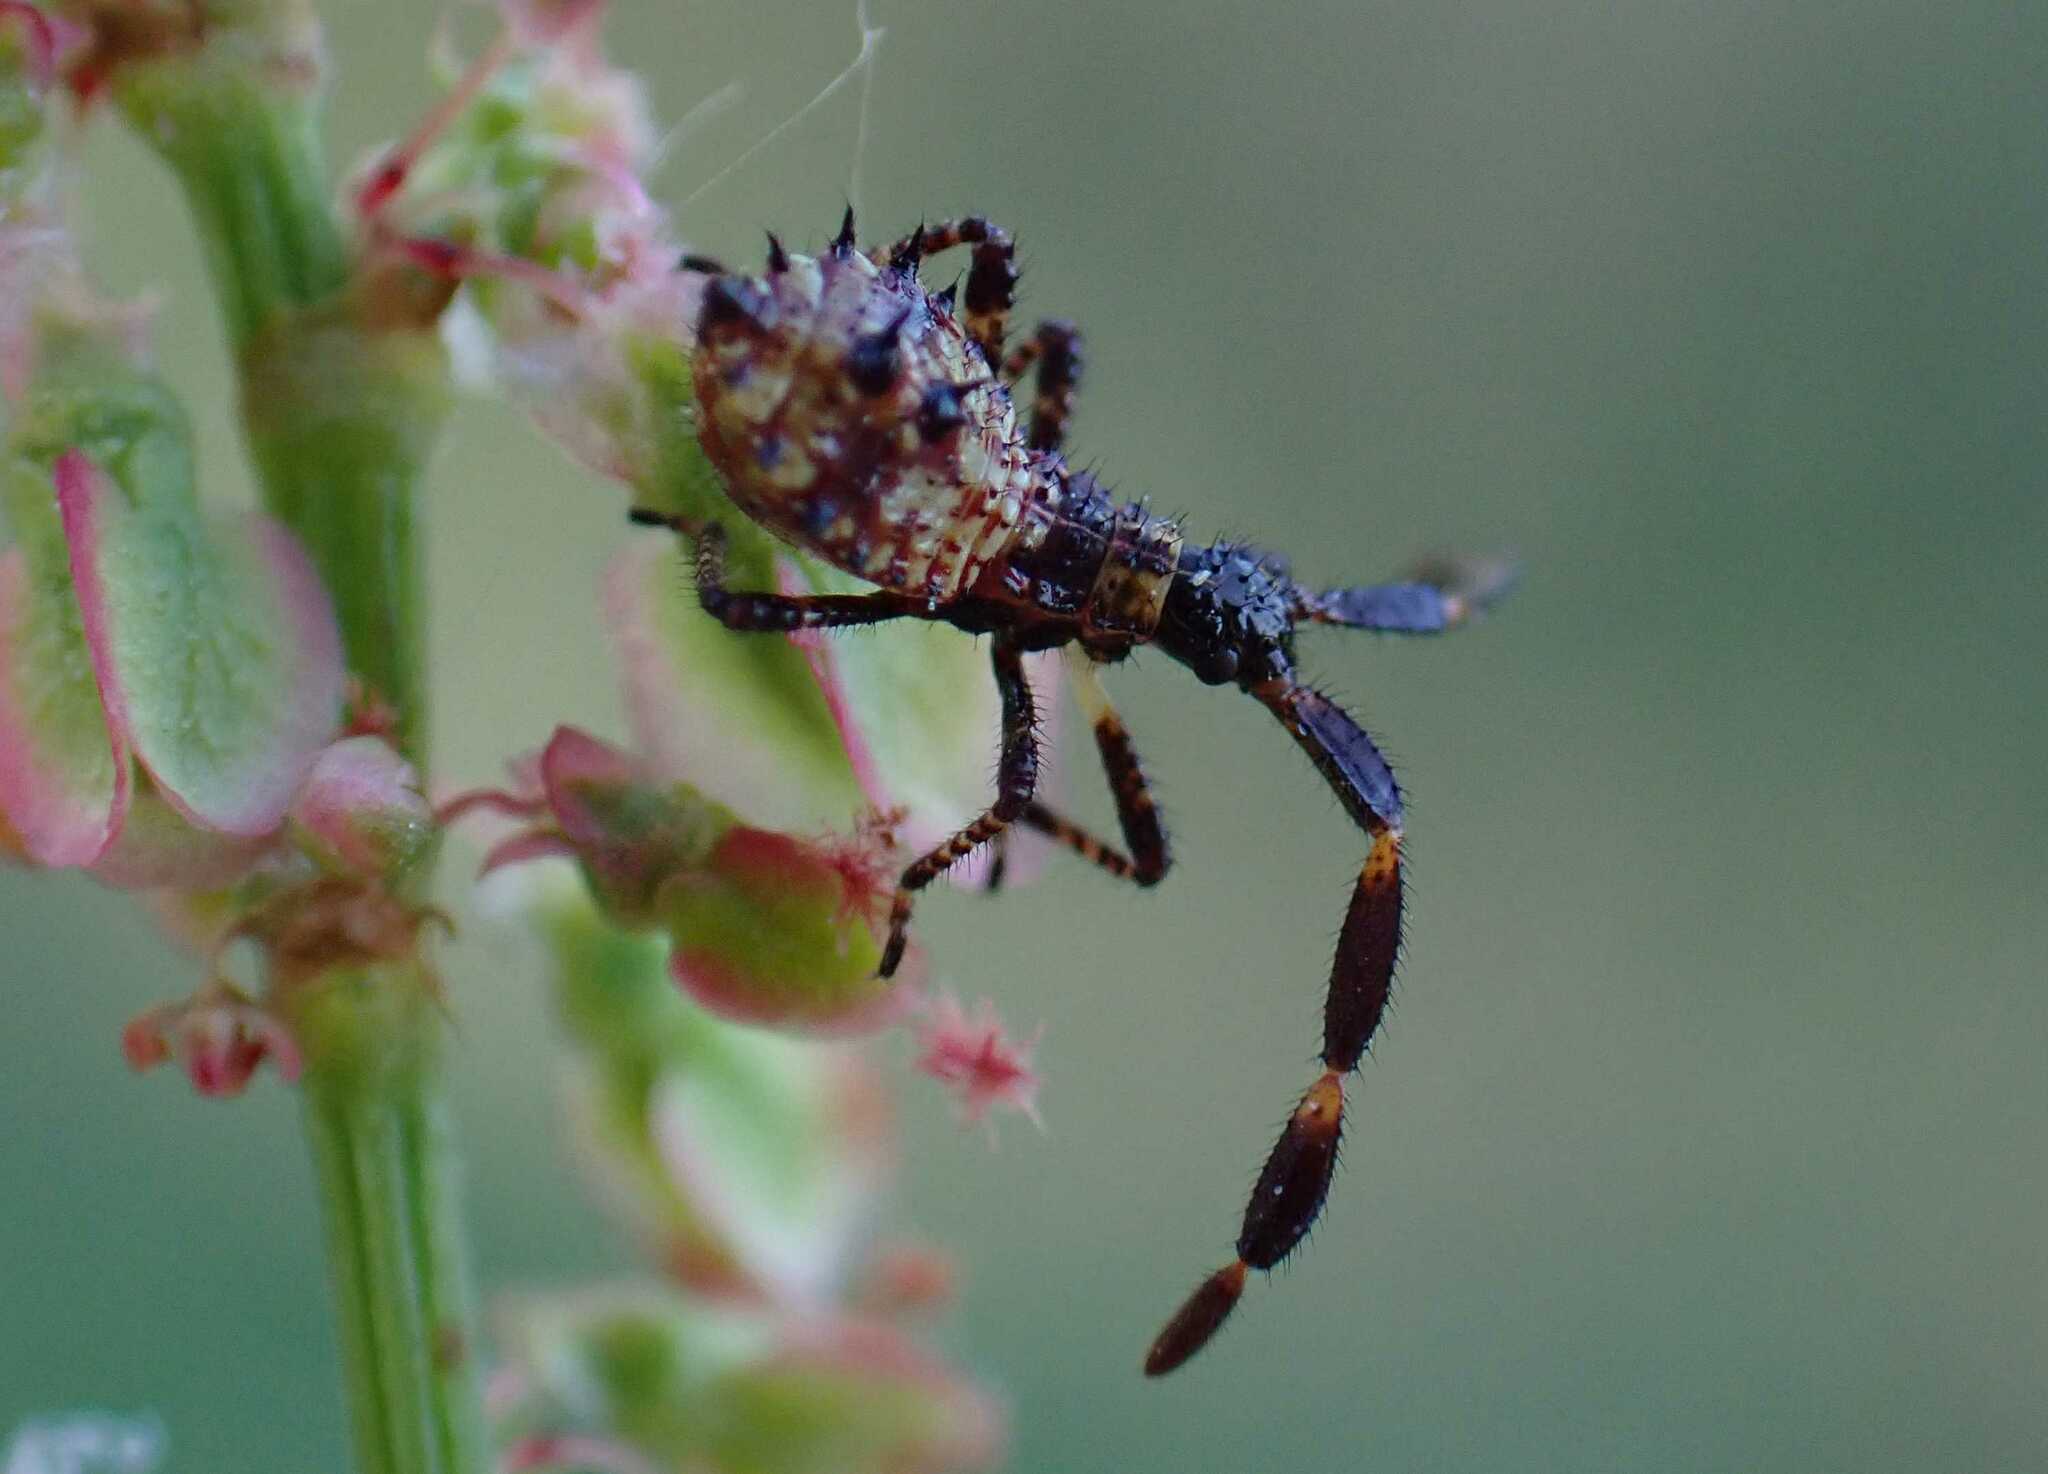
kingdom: Animalia
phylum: Arthropoda
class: Insecta
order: Hemiptera
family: Coreidae
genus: Coreus
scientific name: Coreus marginatus
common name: Dock bug
